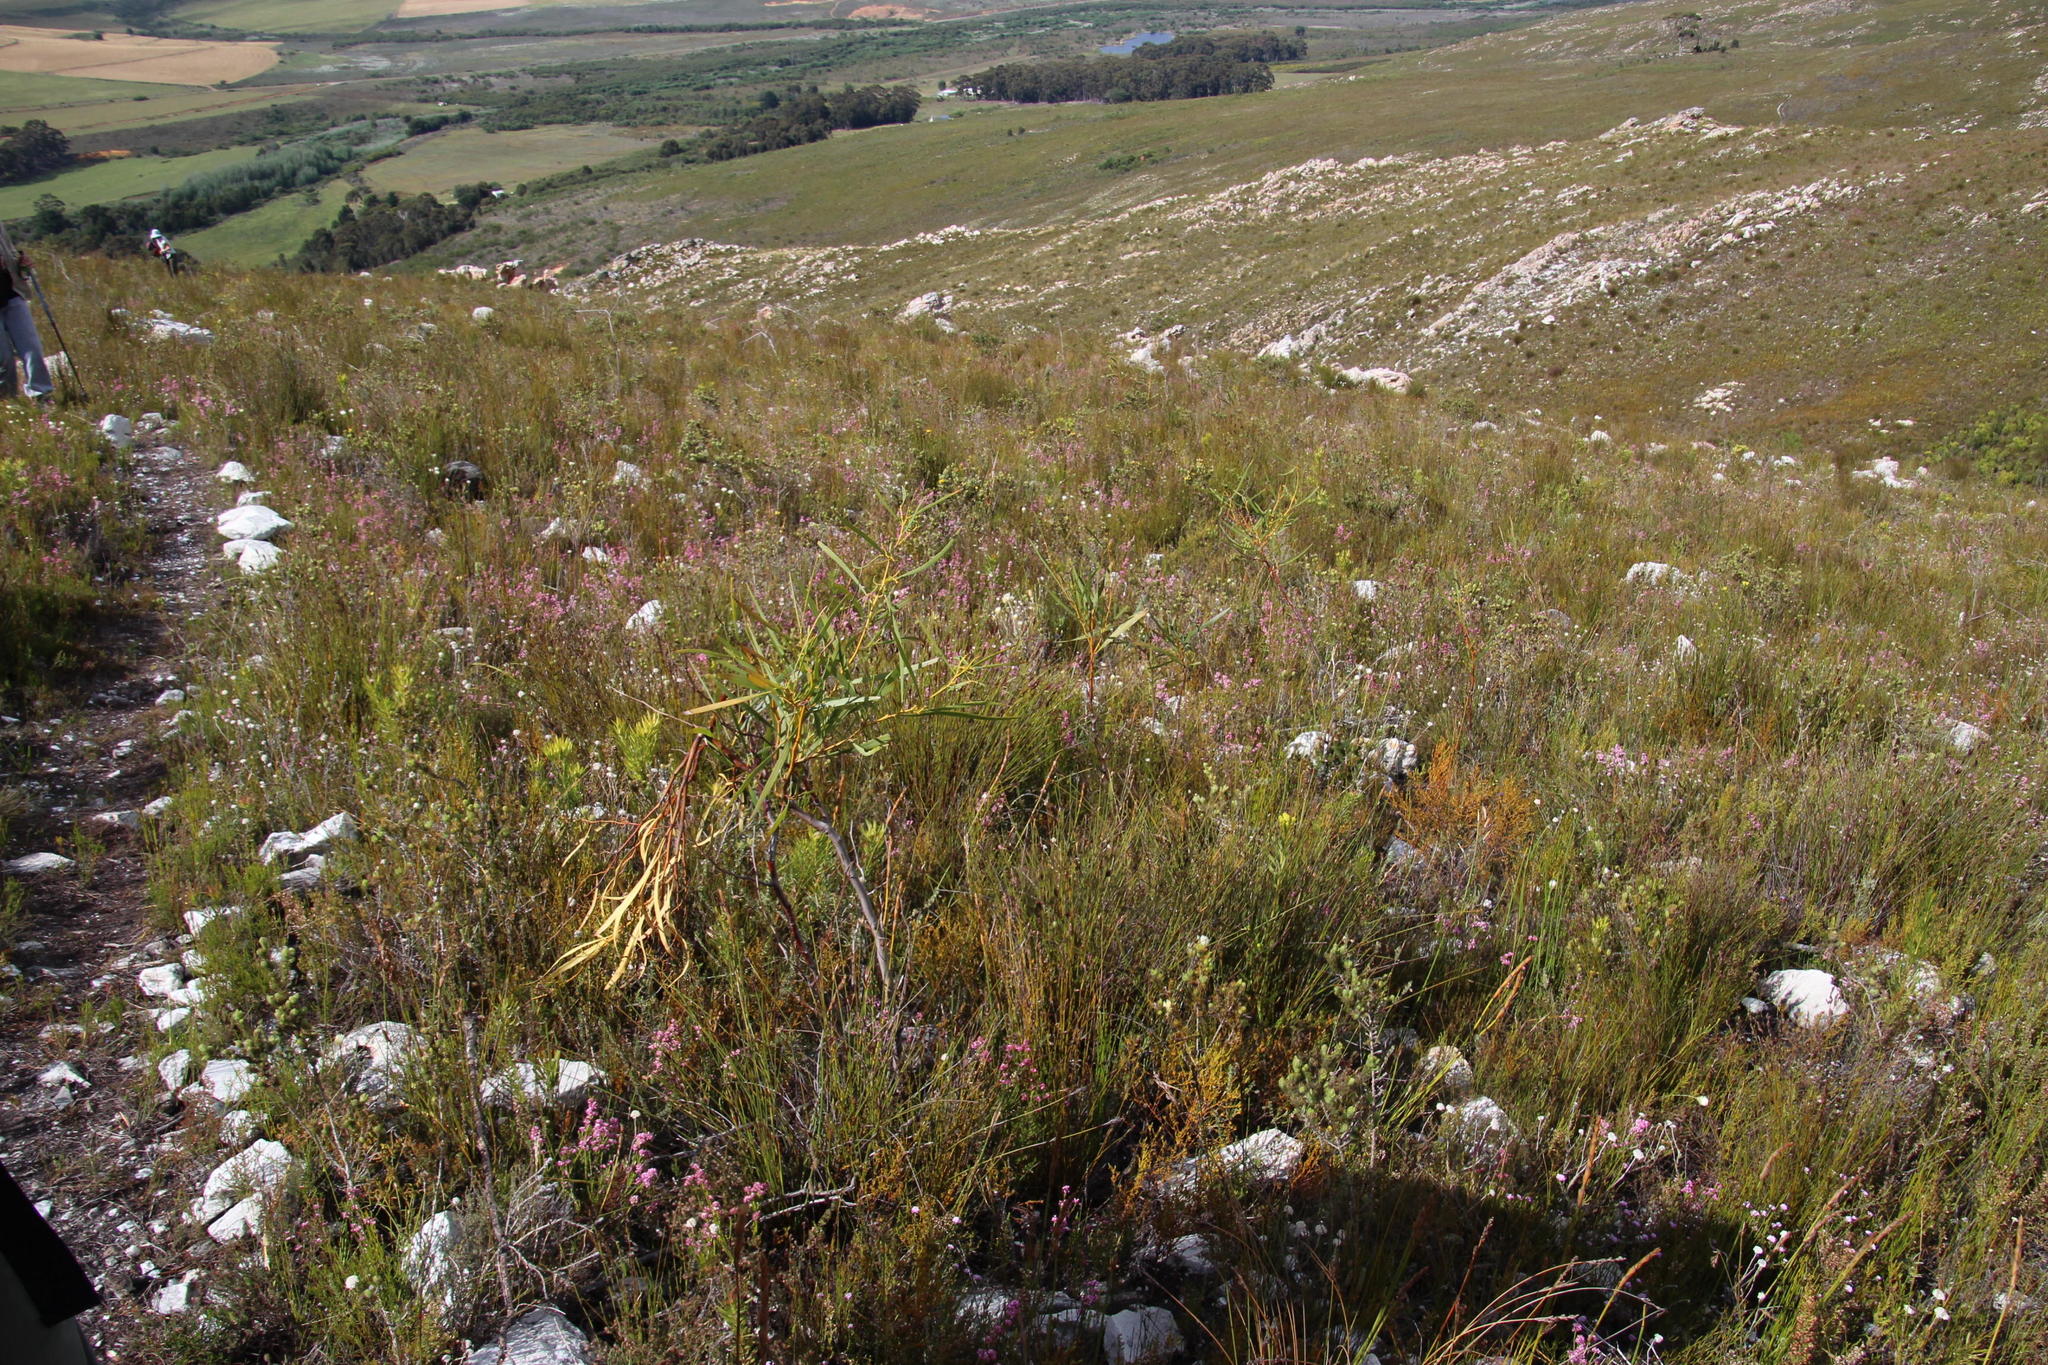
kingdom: Plantae
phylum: Tracheophyta
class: Magnoliopsida
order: Fabales
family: Fabaceae
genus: Acacia
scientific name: Acacia saligna
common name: Orange wattle
